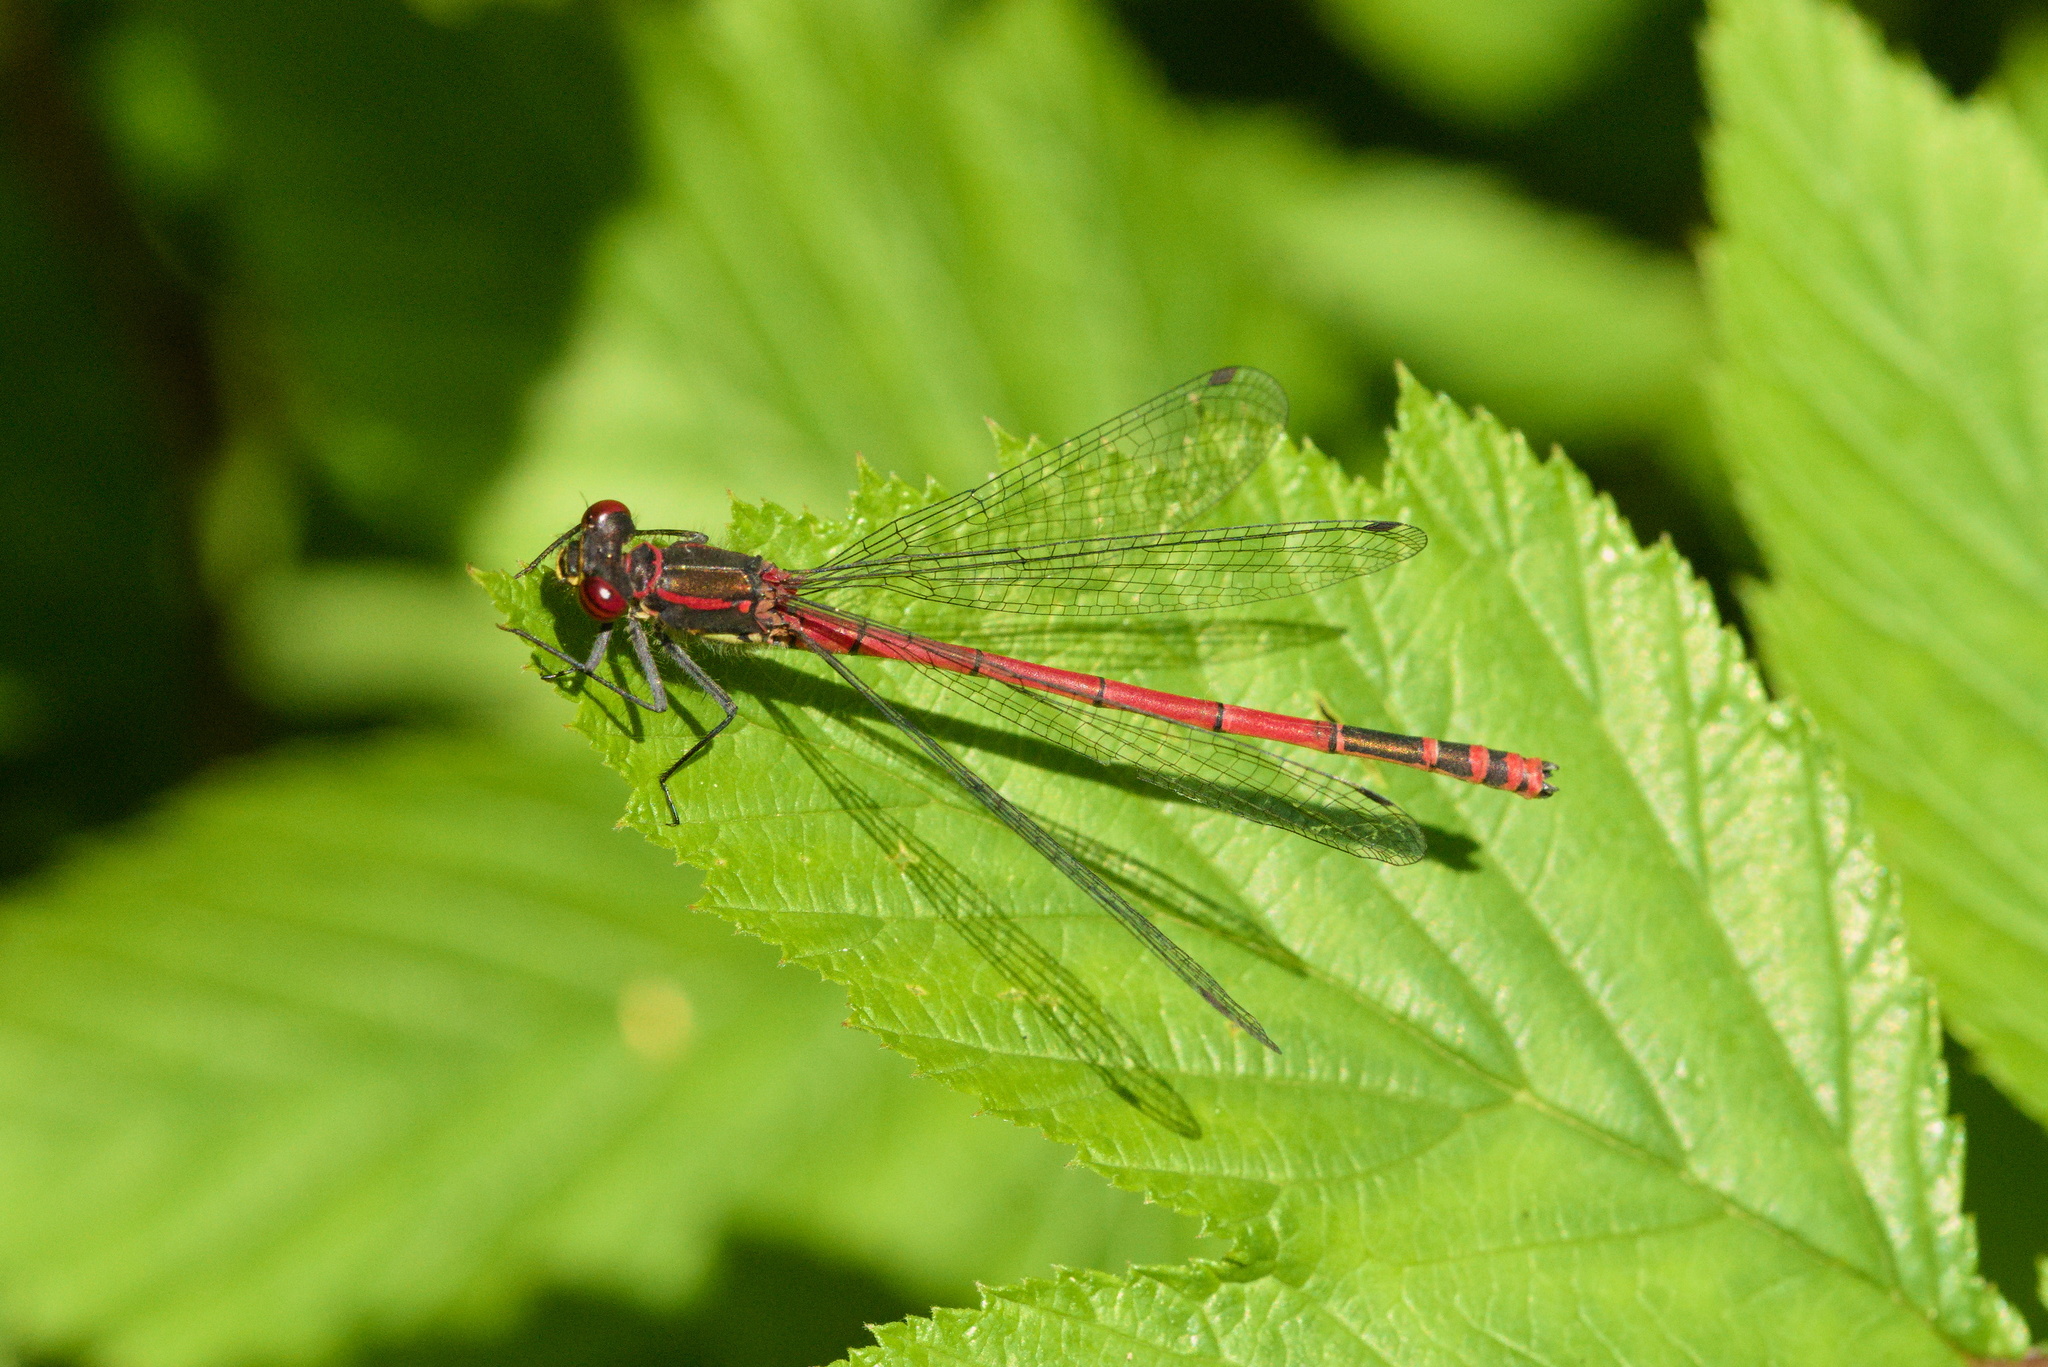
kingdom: Animalia
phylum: Arthropoda
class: Insecta
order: Odonata
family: Coenagrionidae
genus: Pyrrhosoma
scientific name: Pyrrhosoma nymphula
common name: Large red damsel
